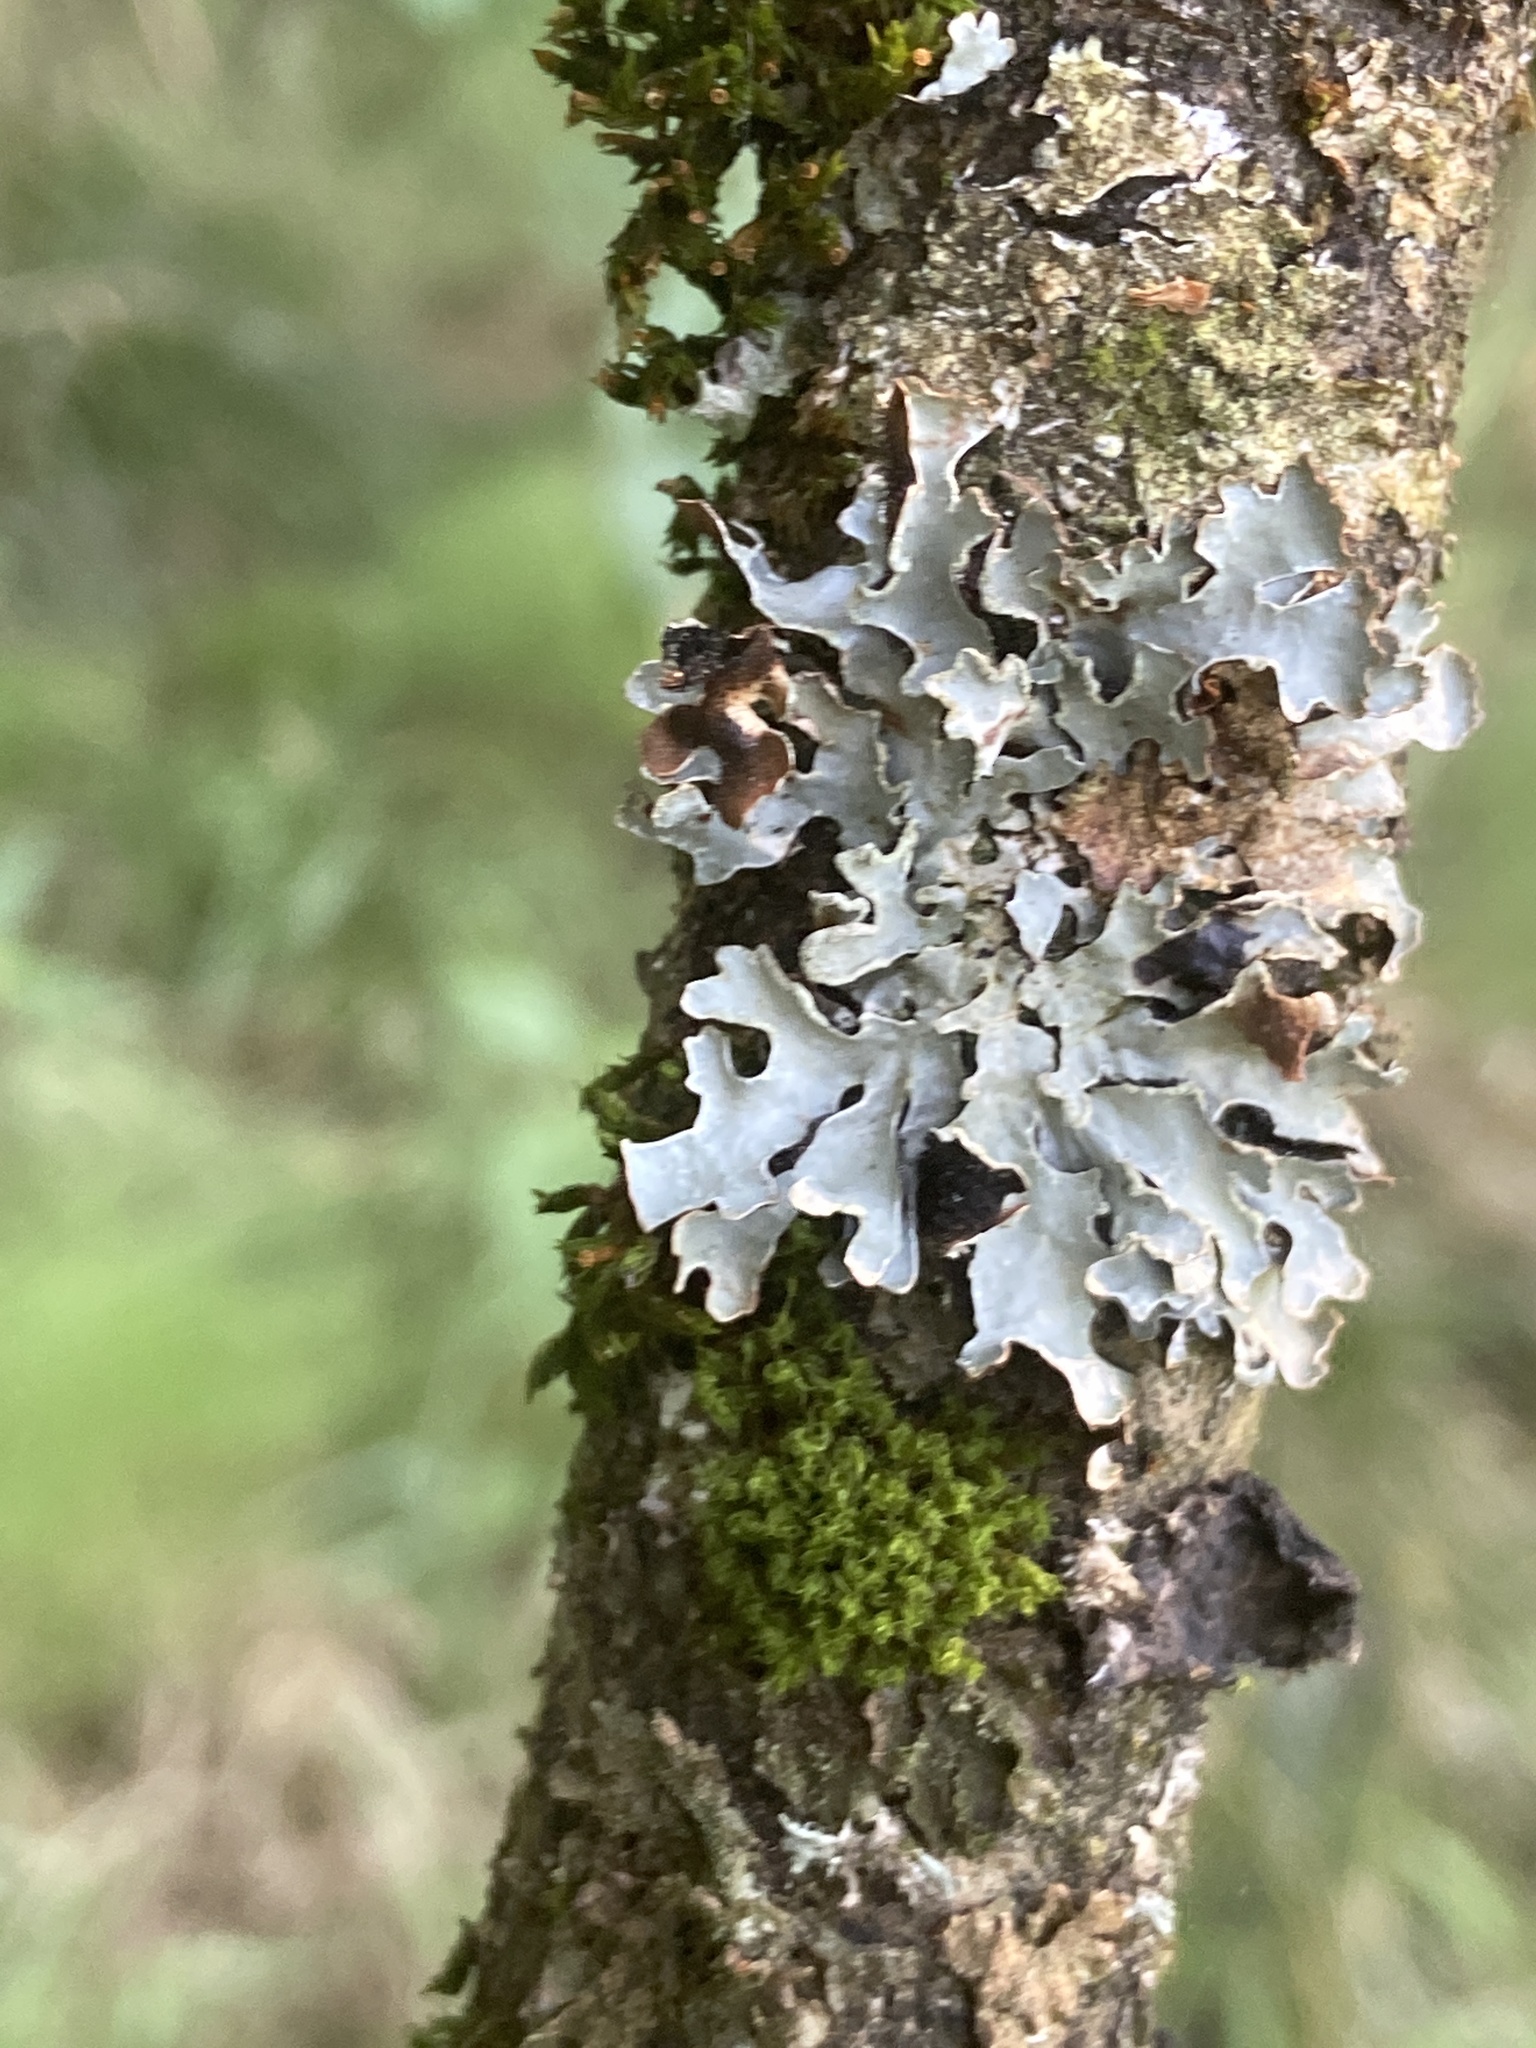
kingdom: Fungi
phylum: Ascomycota
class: Lecanoromycetes
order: Lecanorales
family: Parmeliaceae
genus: Parmelia
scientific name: Parmelia sulcata
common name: Netted shield lichen
